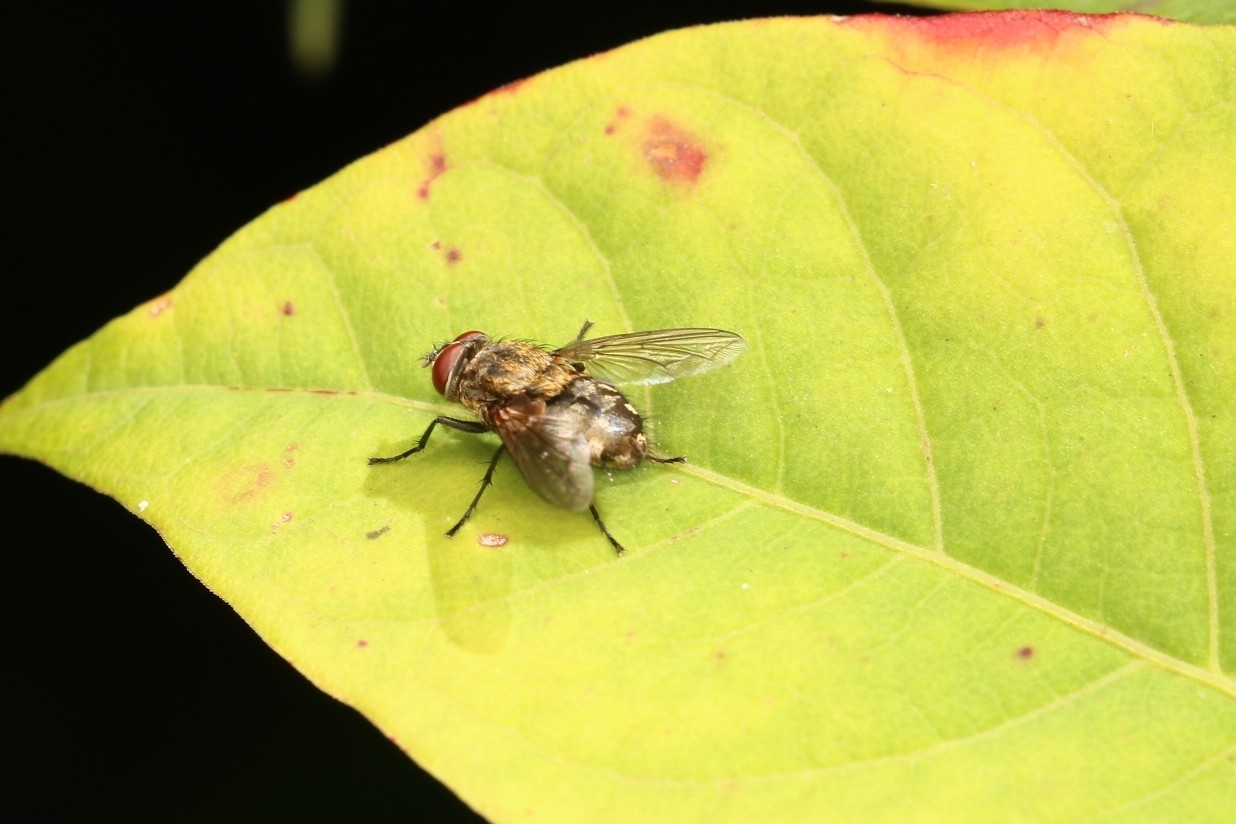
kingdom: Animalia
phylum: Arthropoda
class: Insecta
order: Diptera
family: Polleniidae
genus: Pollenia
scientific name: Pollenia
